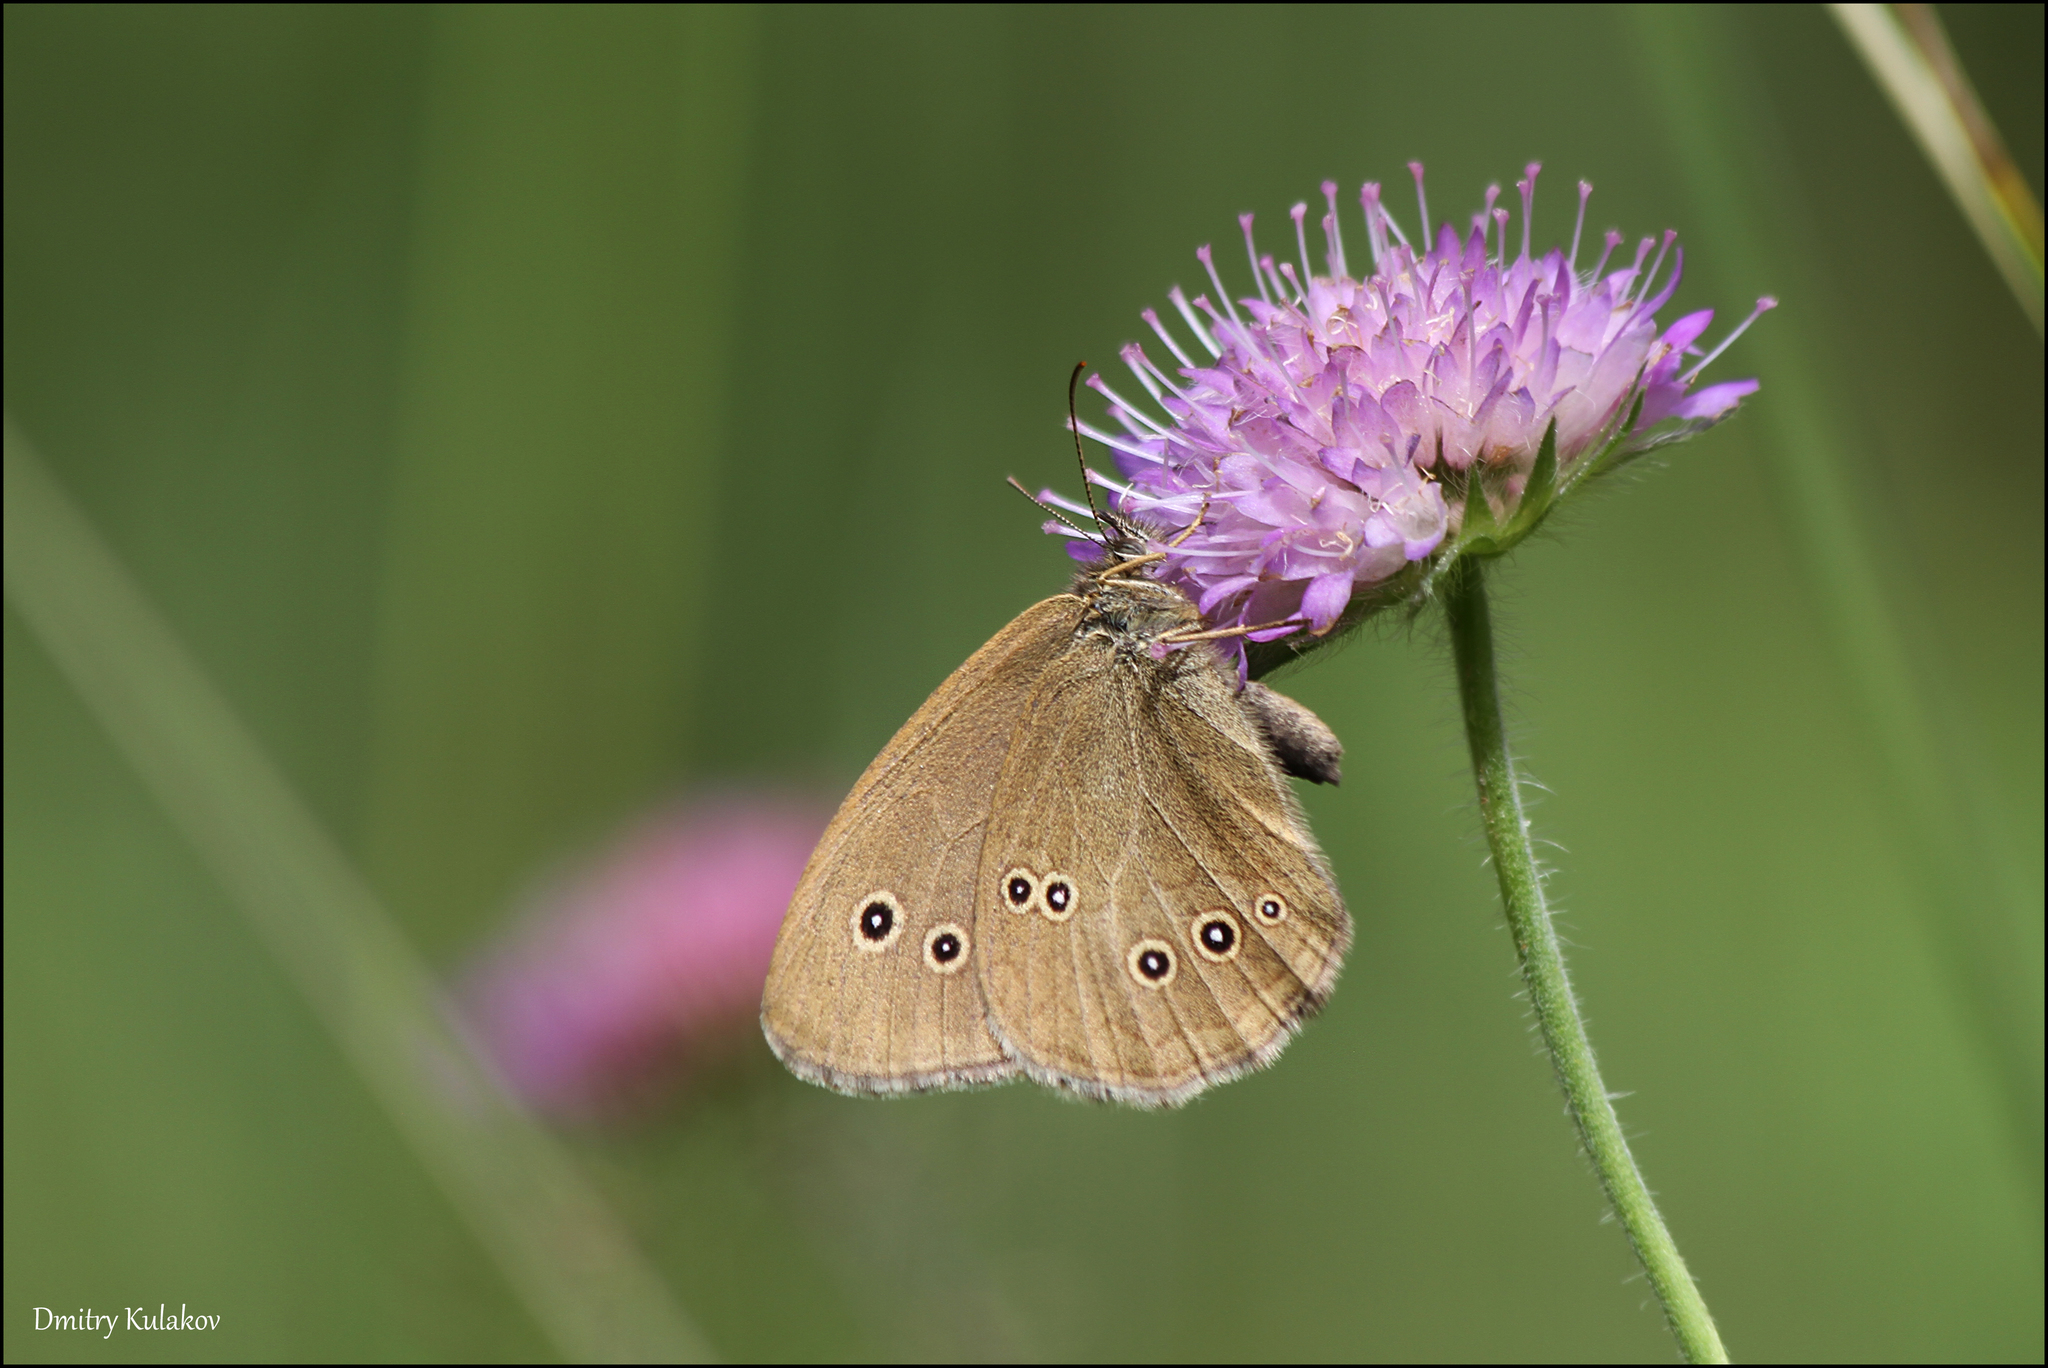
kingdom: Animalia
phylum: Arthropoda
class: Insecta
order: Lepidoptera
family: Nymphalidae
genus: Aphantopus
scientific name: Aphantopus hyperantus
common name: Ringlet
